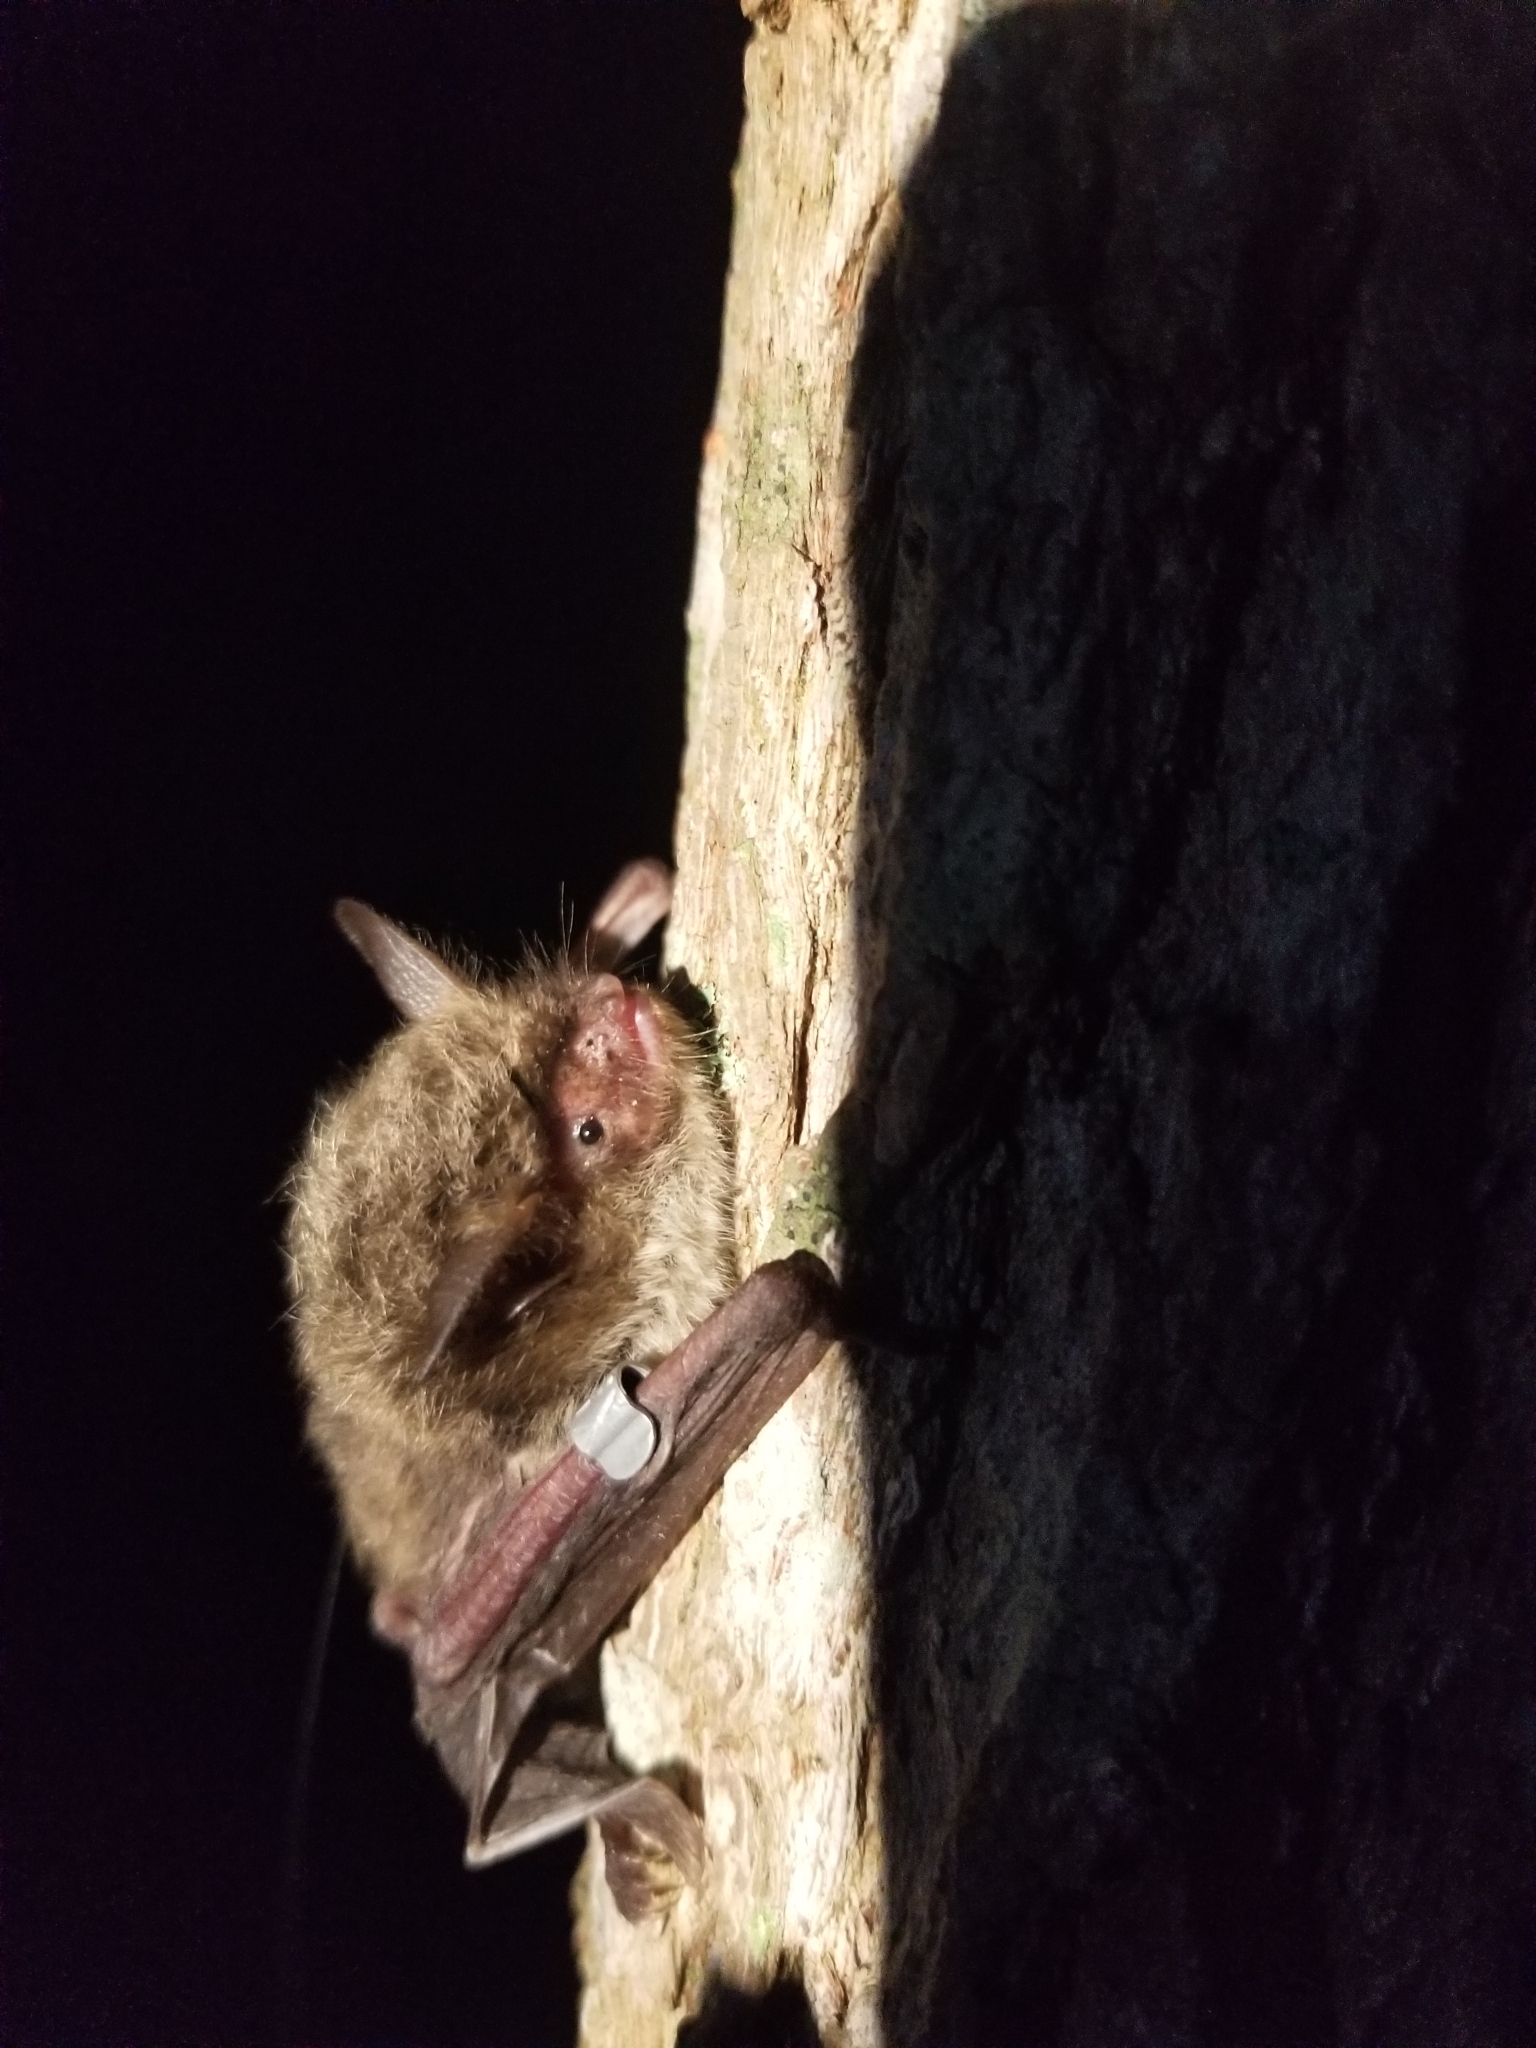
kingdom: Animalia
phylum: Chordata
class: Mammalia
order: Chiroptera
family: Vespertilionidae
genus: Myotis
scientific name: Myotis septentrionalis
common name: Northern myotis
